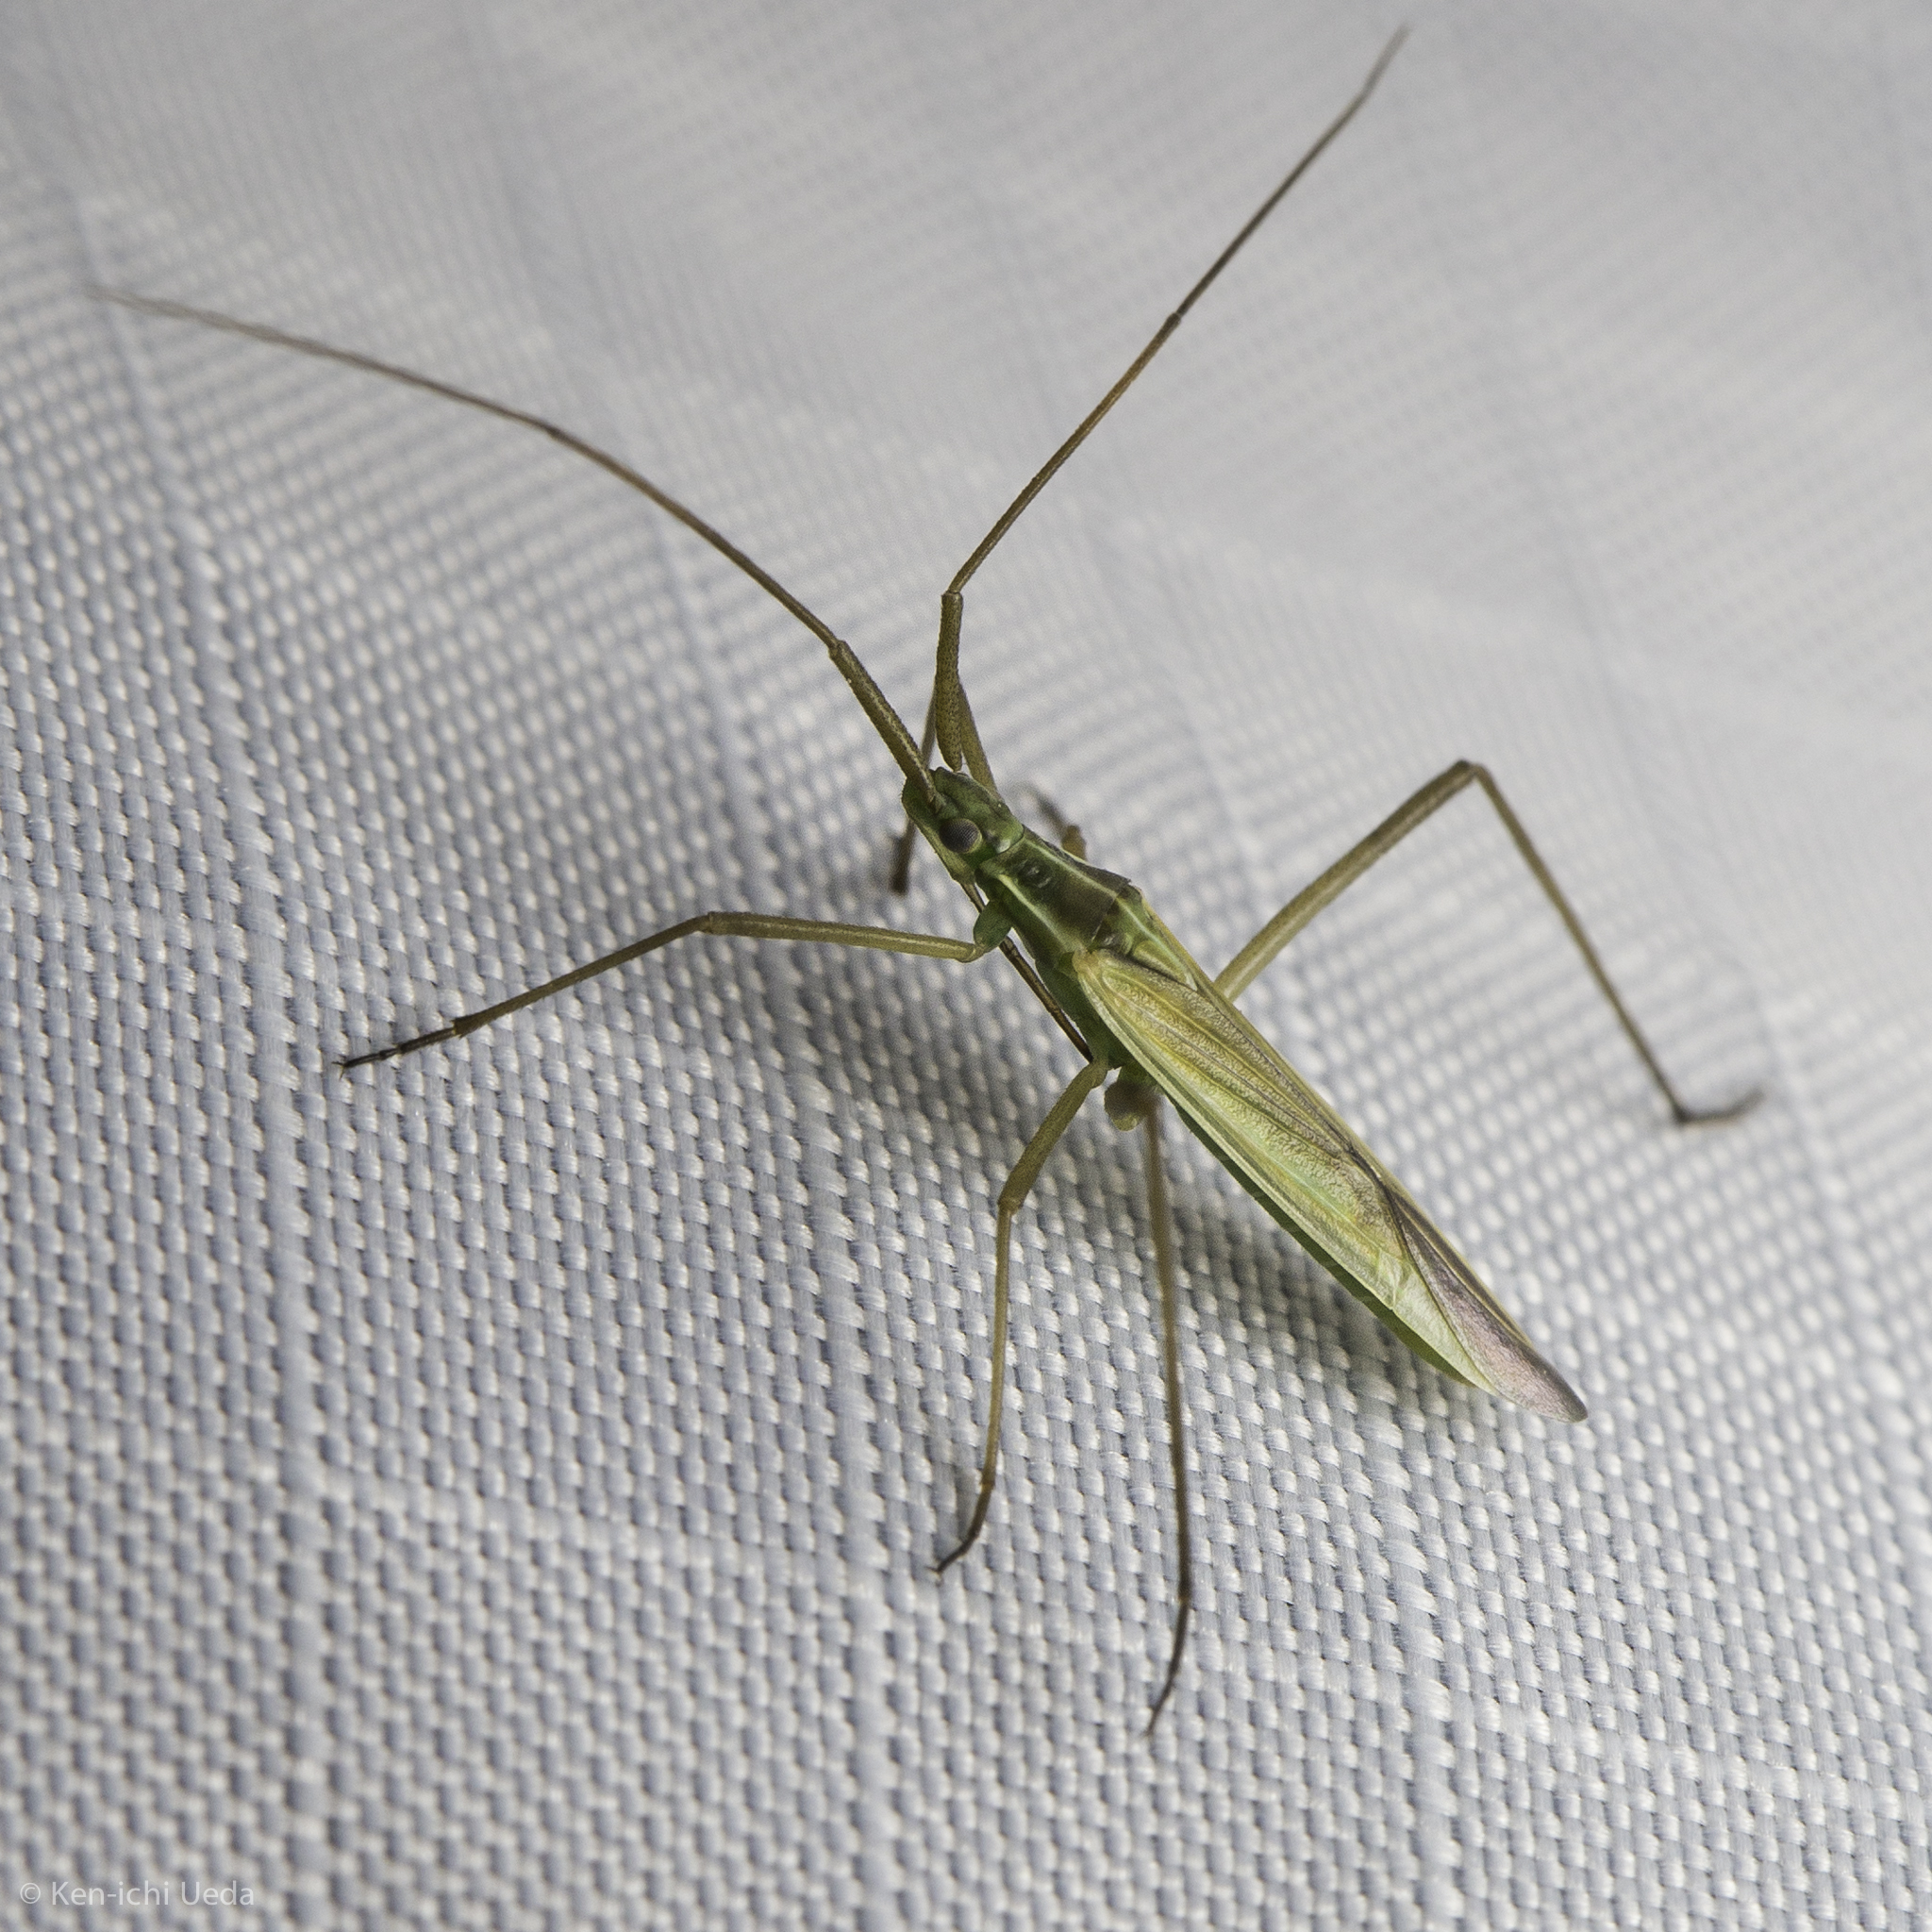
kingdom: Animalia
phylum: Arthropoda
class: Insecta
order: Hemiptera
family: Miridae
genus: Megaloceroea
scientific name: Megaloceroea recticornis
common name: Plant bug
